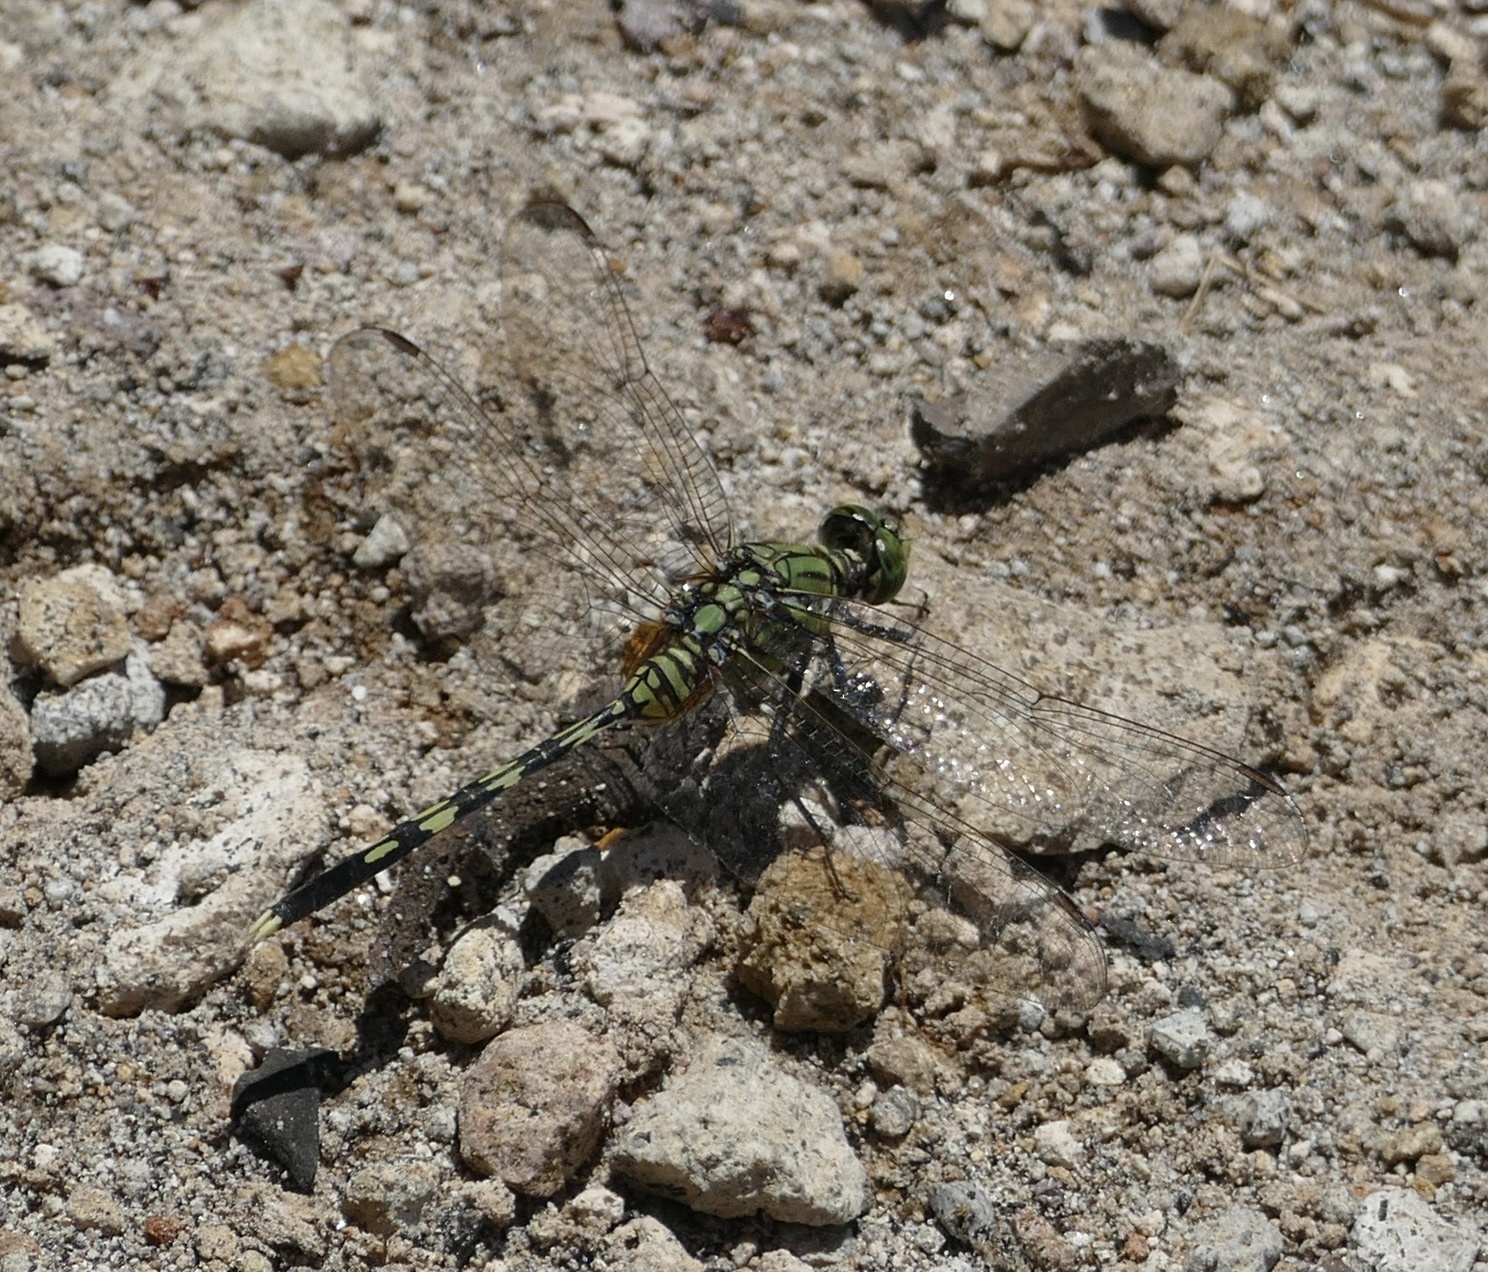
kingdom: Animalia
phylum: Arthropoda
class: Insecta
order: Odonata
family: Libellulidae
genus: Orthetrum
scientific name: Orthetrum serapia
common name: Green skimmer
